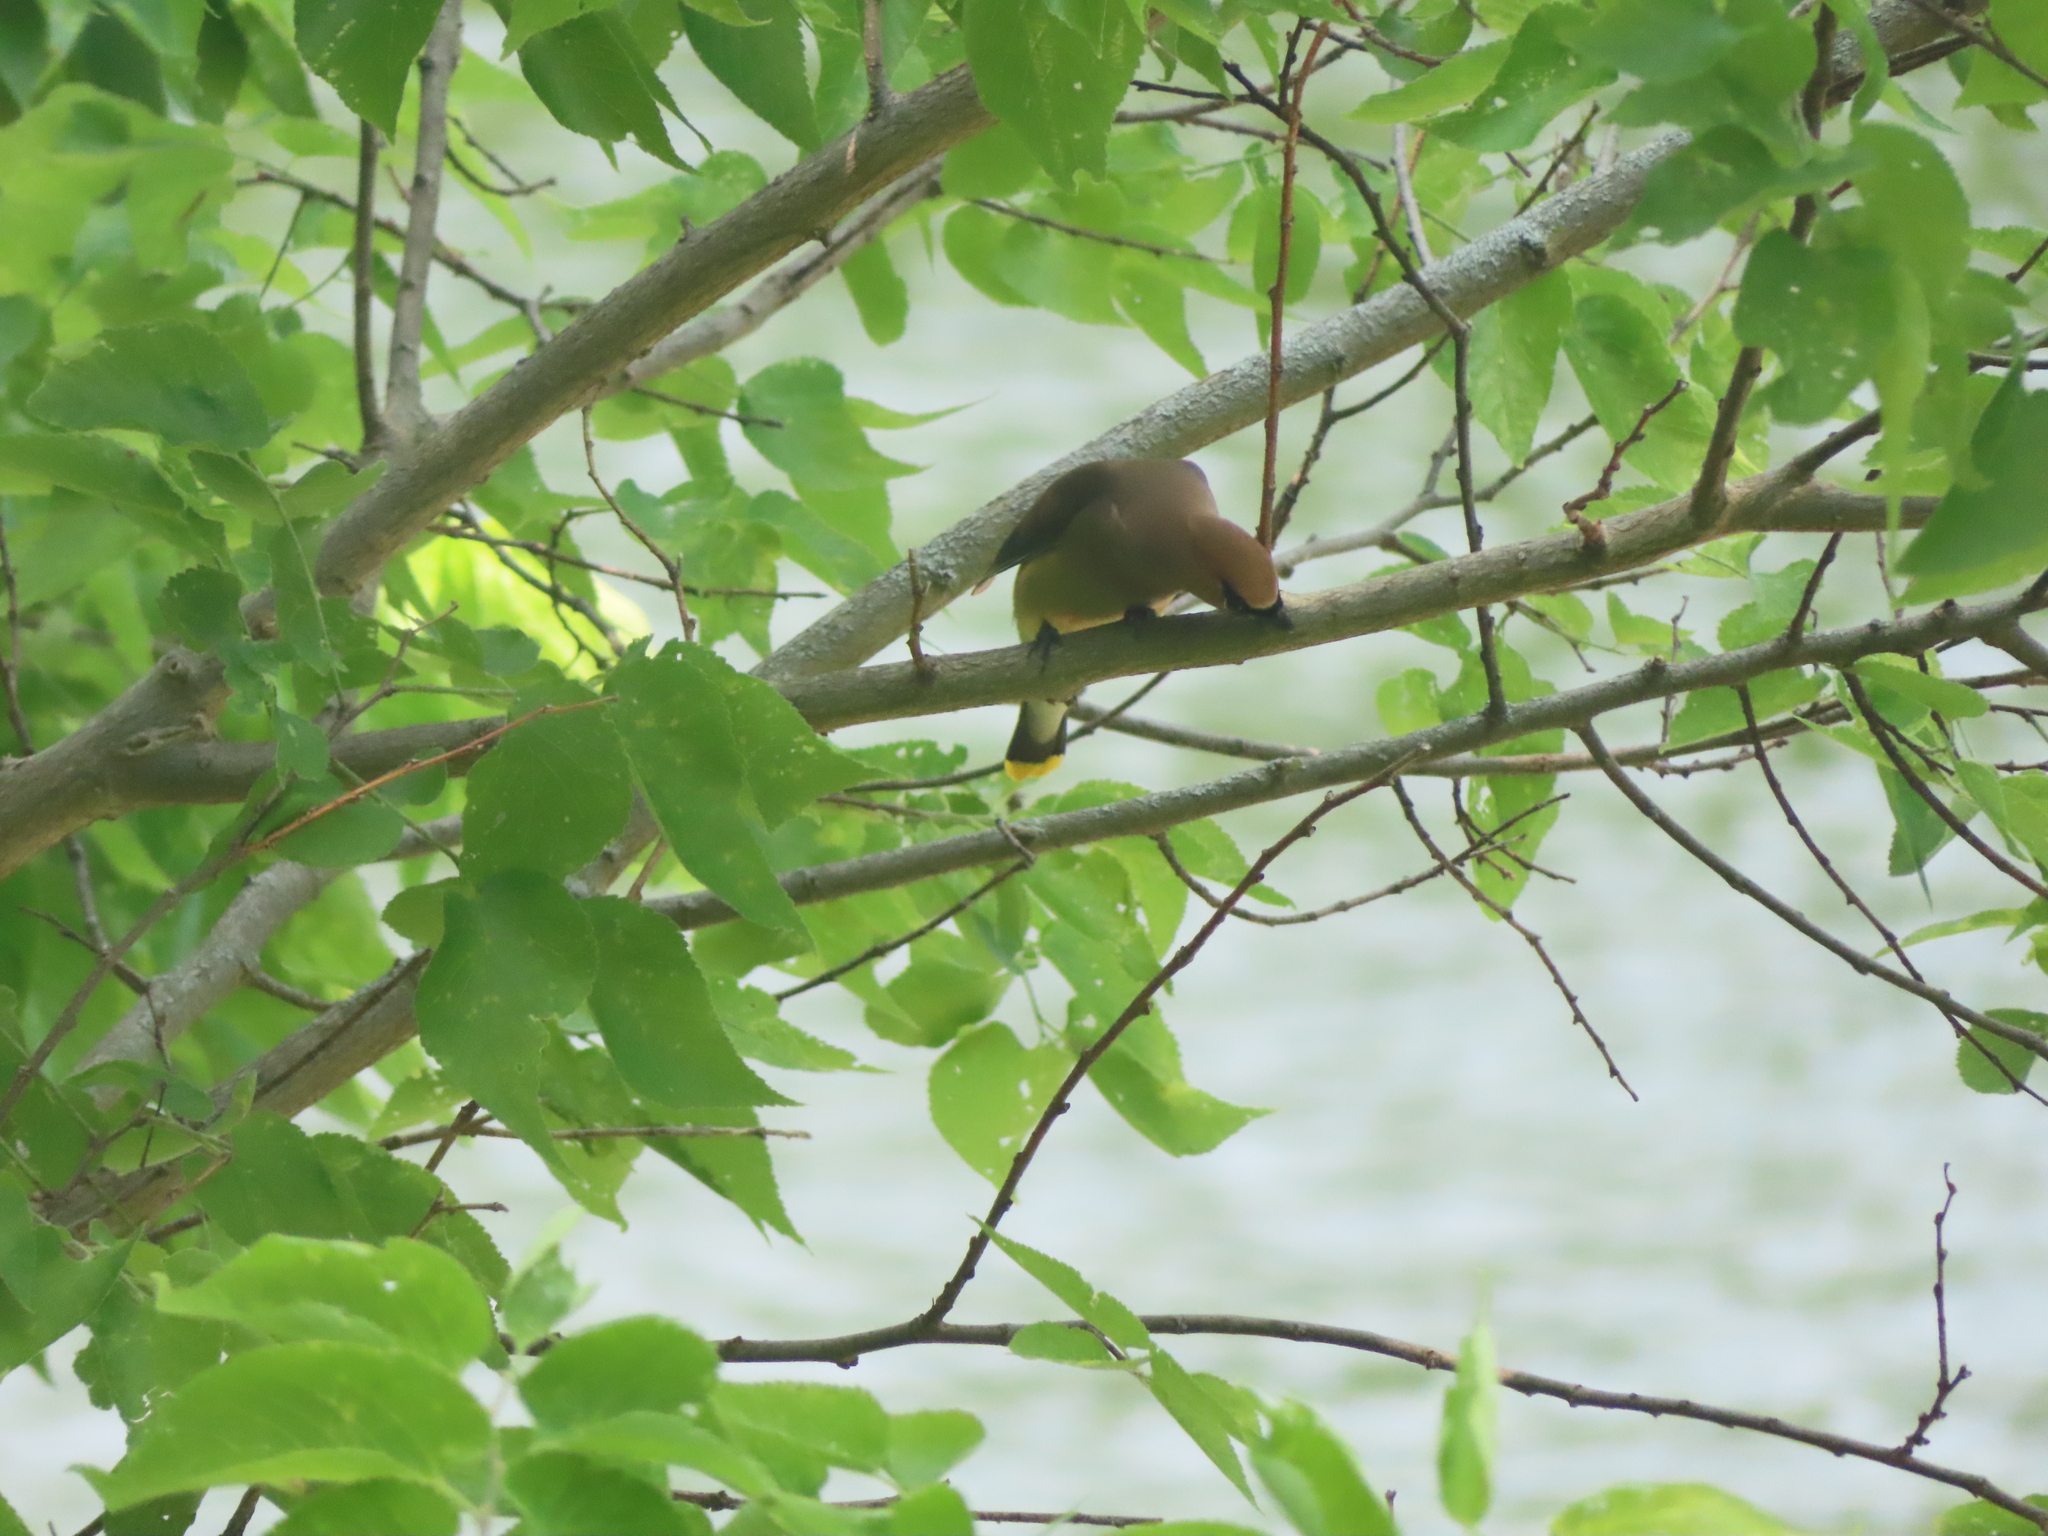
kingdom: Animalia
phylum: Chordata
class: Aves
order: Passeriformes
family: Bombycillidae
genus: Bombycilla
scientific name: Bombycilla cedrorum
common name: Cedar waxwing
